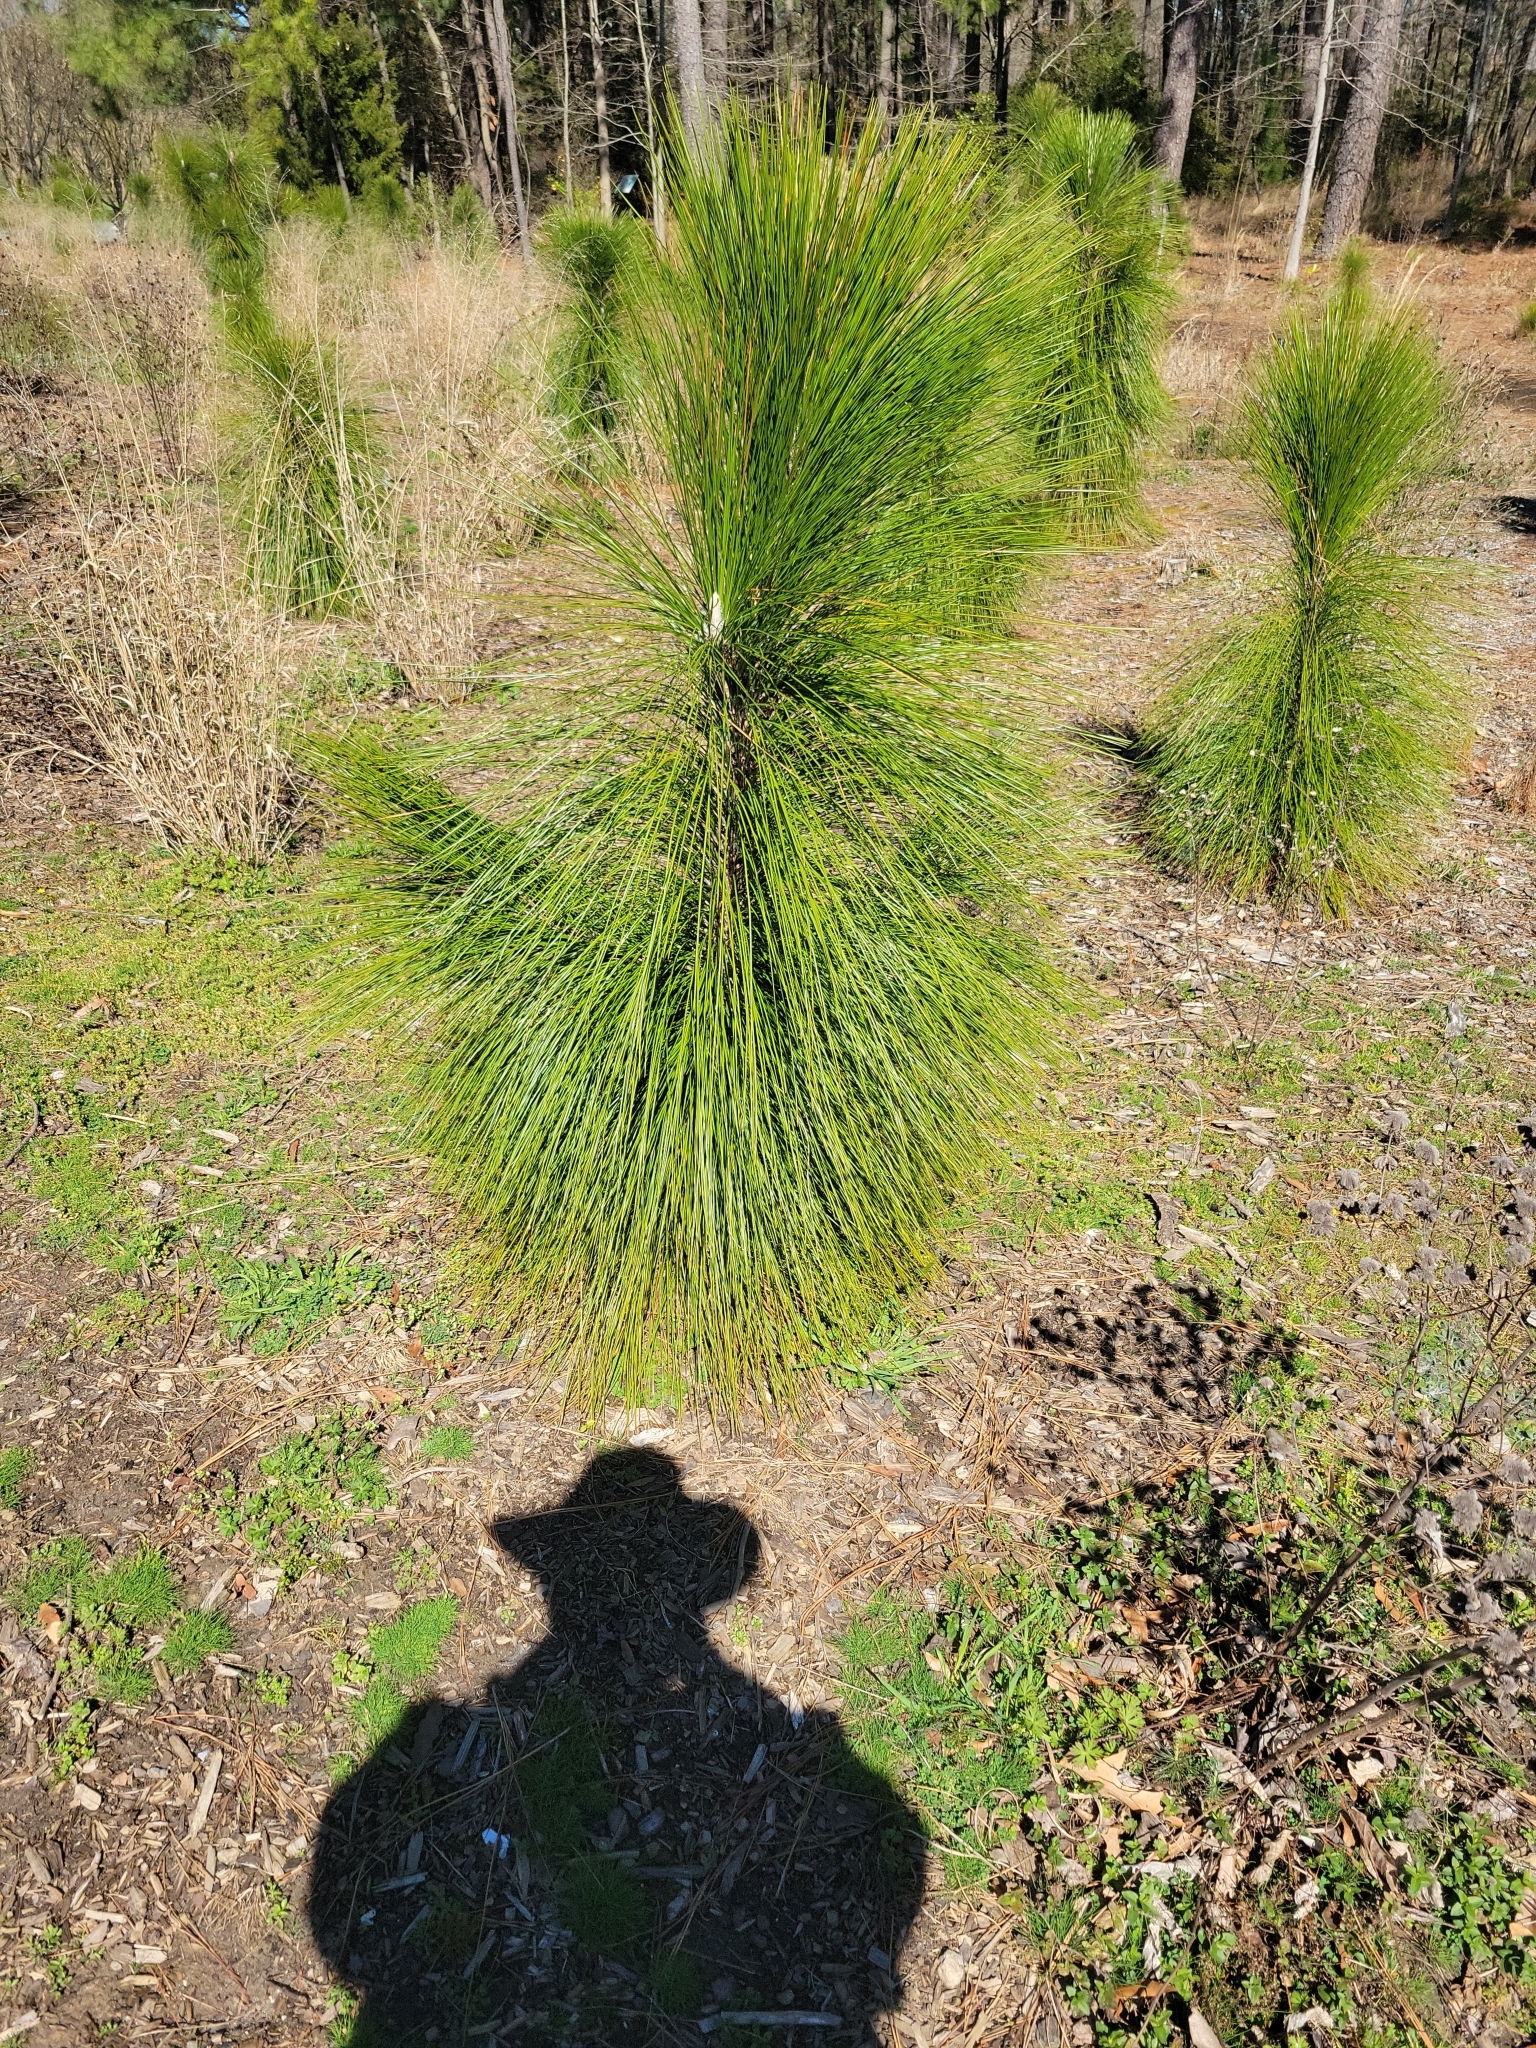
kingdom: Plantae
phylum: Tracheophyta
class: Pinopsida
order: Pinales
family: Pinaceae
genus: Pinus
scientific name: Pinus palustris
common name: Longleaf pine
